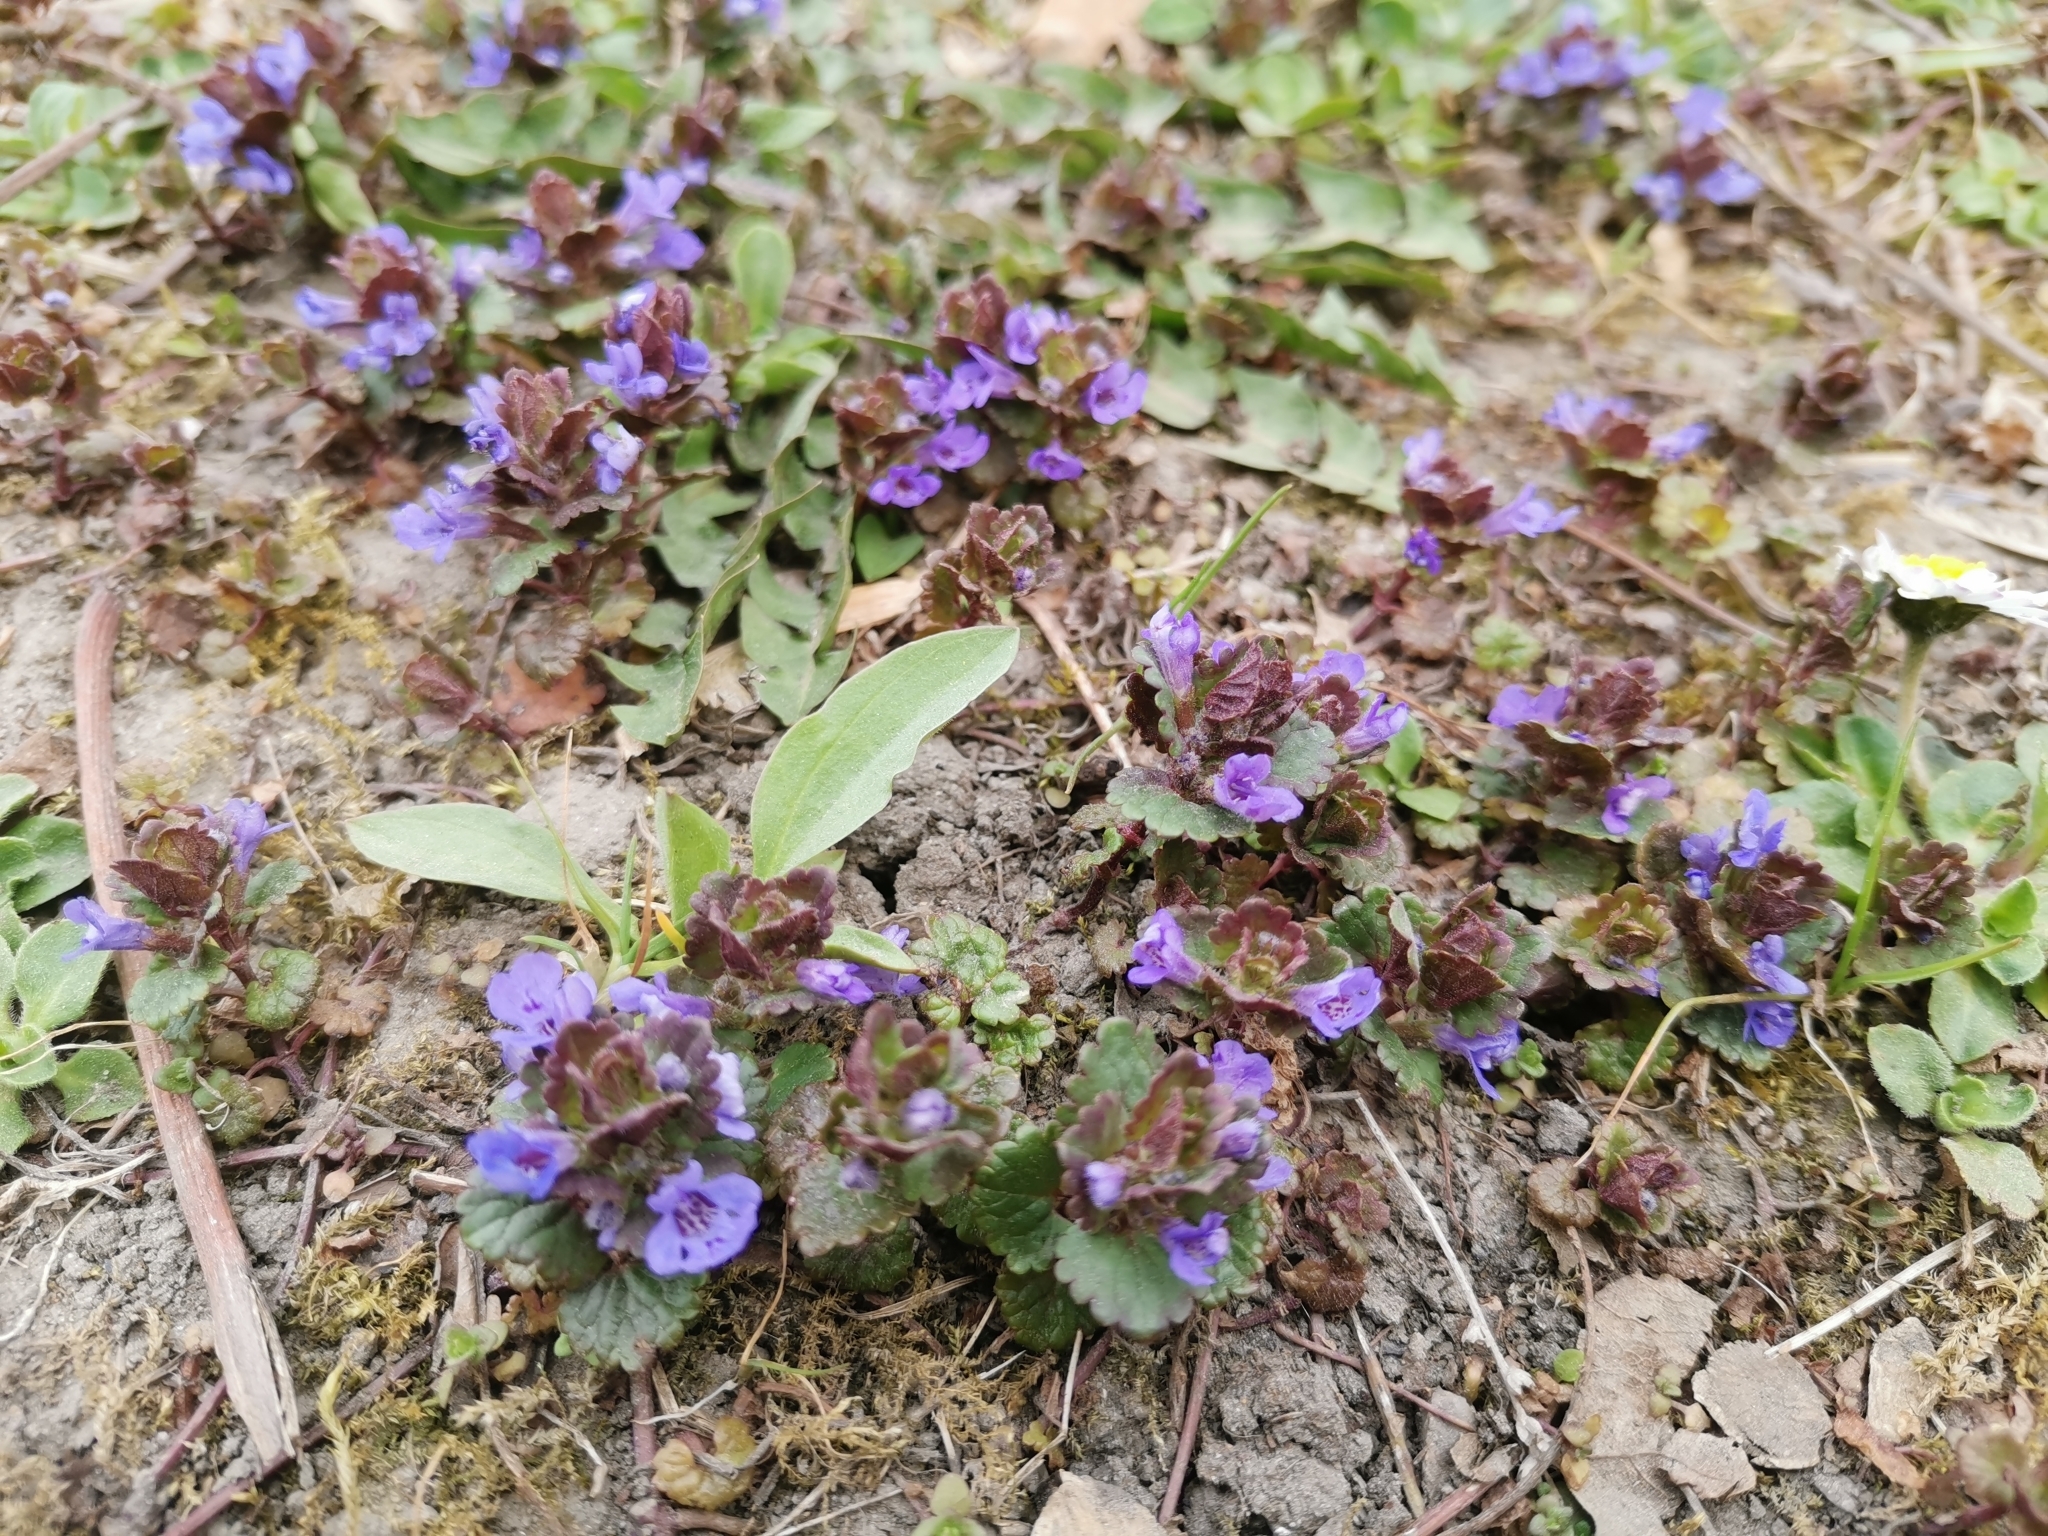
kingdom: Plantae
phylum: Tracheophyta
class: Magnoliopsida
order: Lamiales
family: Lamiaceae
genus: Glechoma
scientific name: Glechoma hederacea
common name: Ground ivy
